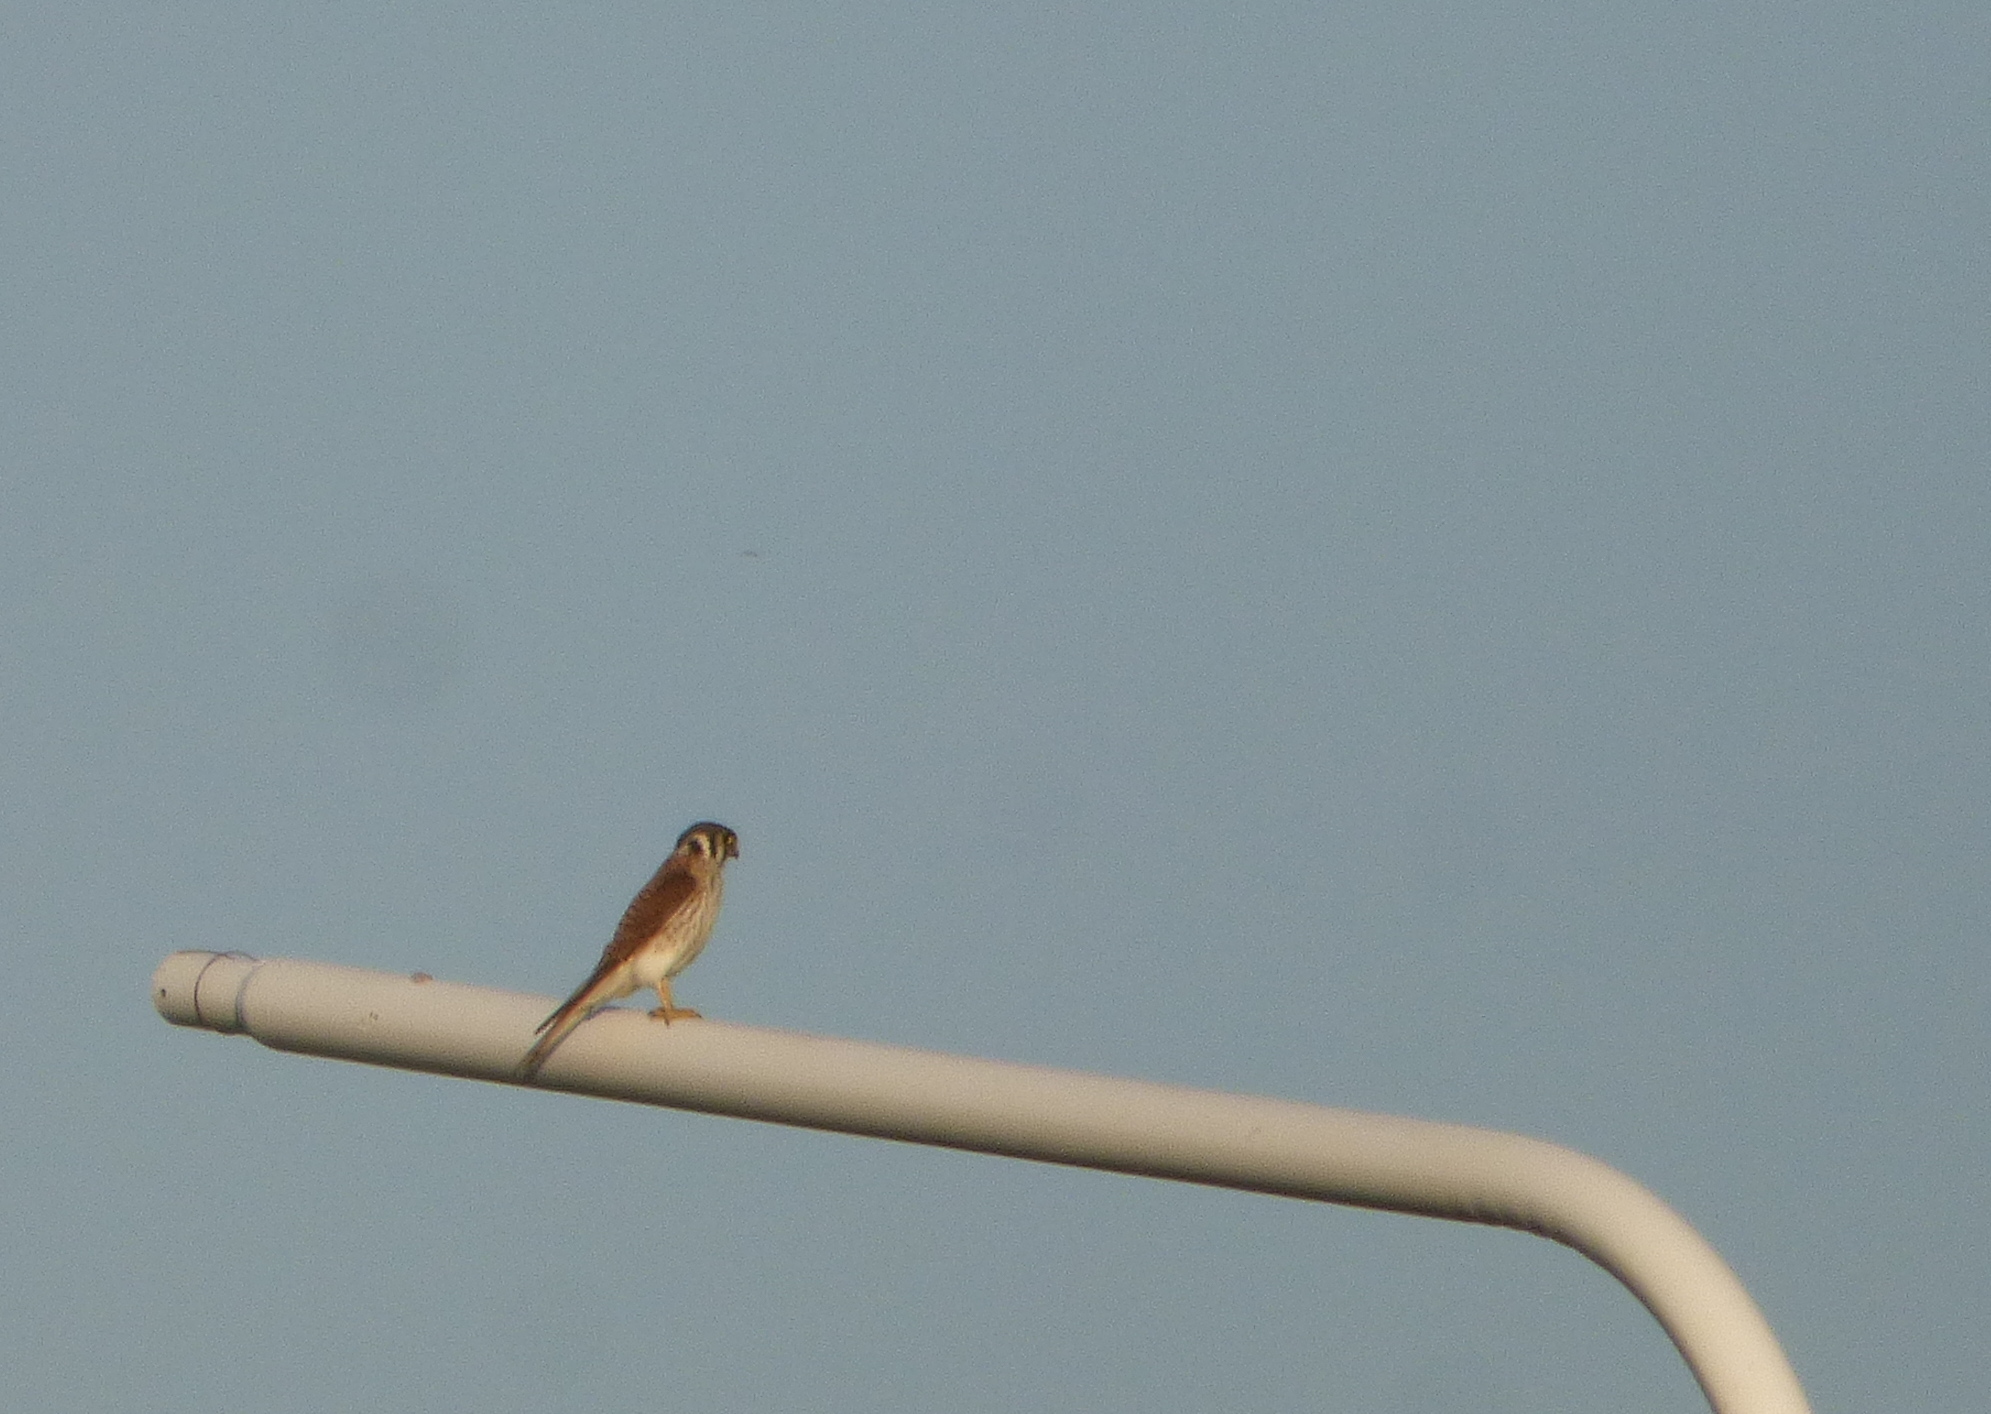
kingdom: Animalia
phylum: Chordata
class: Aves
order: Falconiformes
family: Falconidae
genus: Falco
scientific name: Falco sparverius
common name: American kestrel
